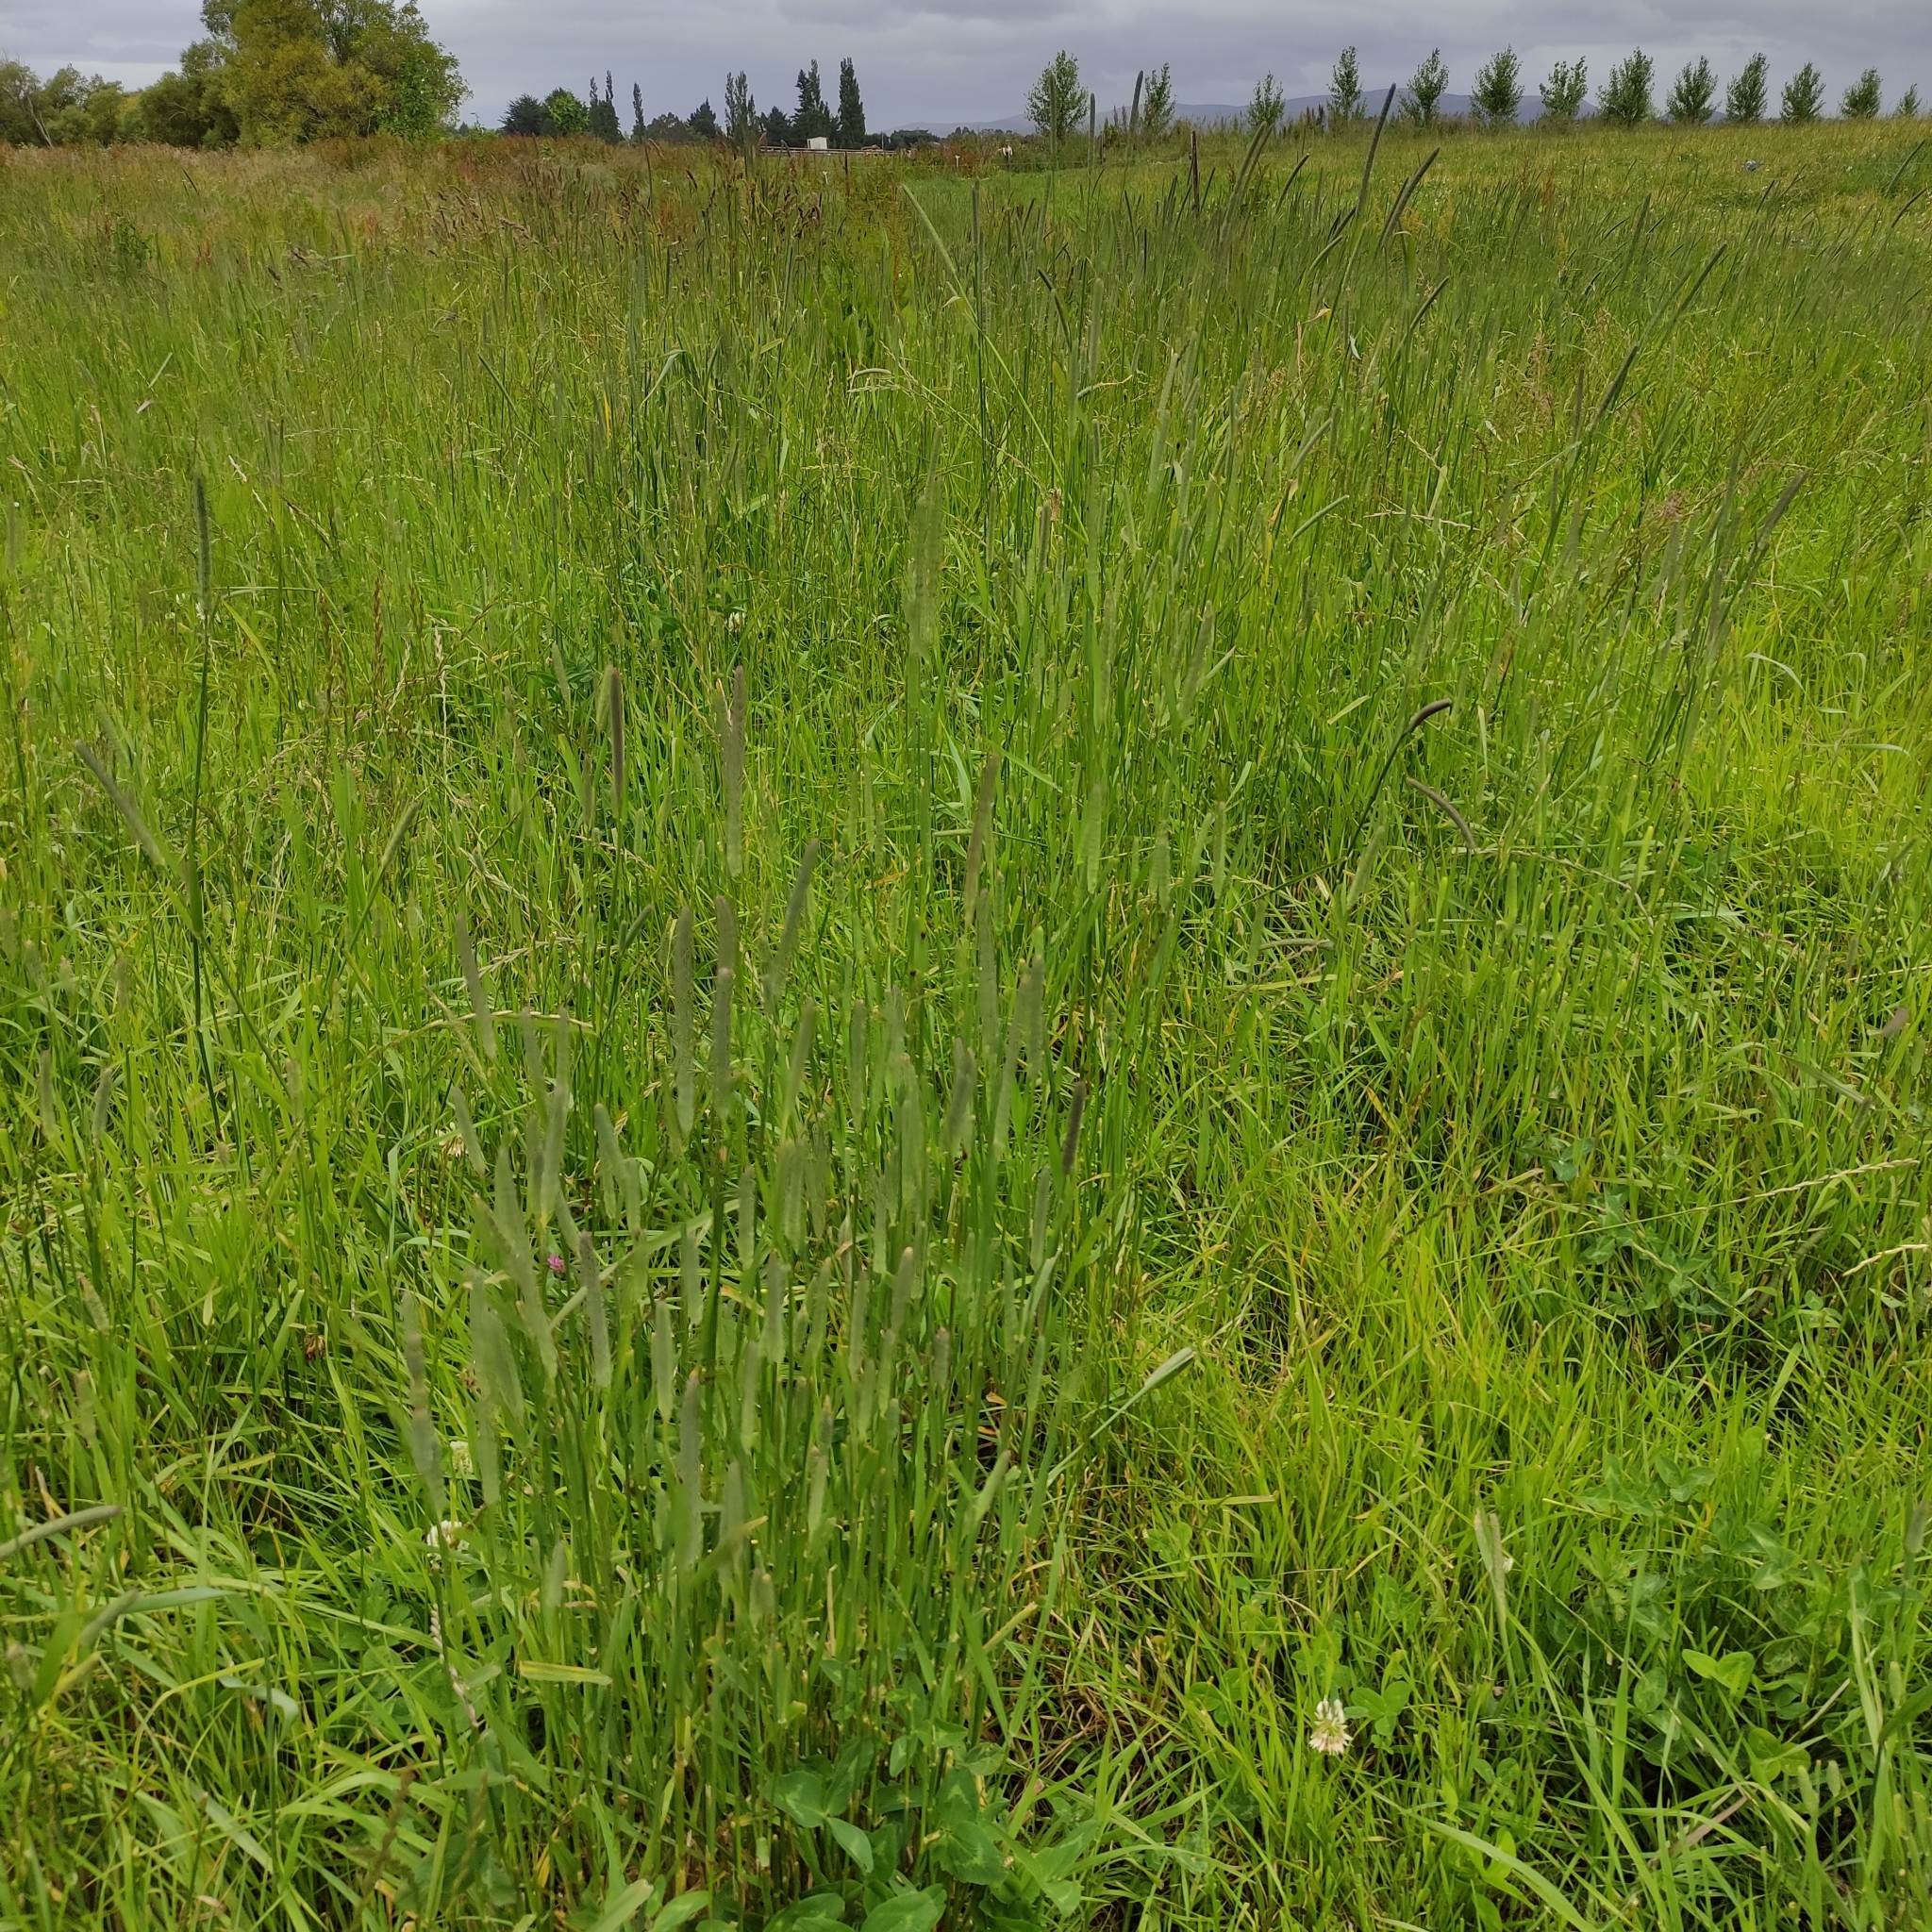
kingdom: Plantae
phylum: Tracheophyta
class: Liliopsida
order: Poales
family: Poaceae
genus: Phleum
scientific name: Phleum pratense
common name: Timothy grass
